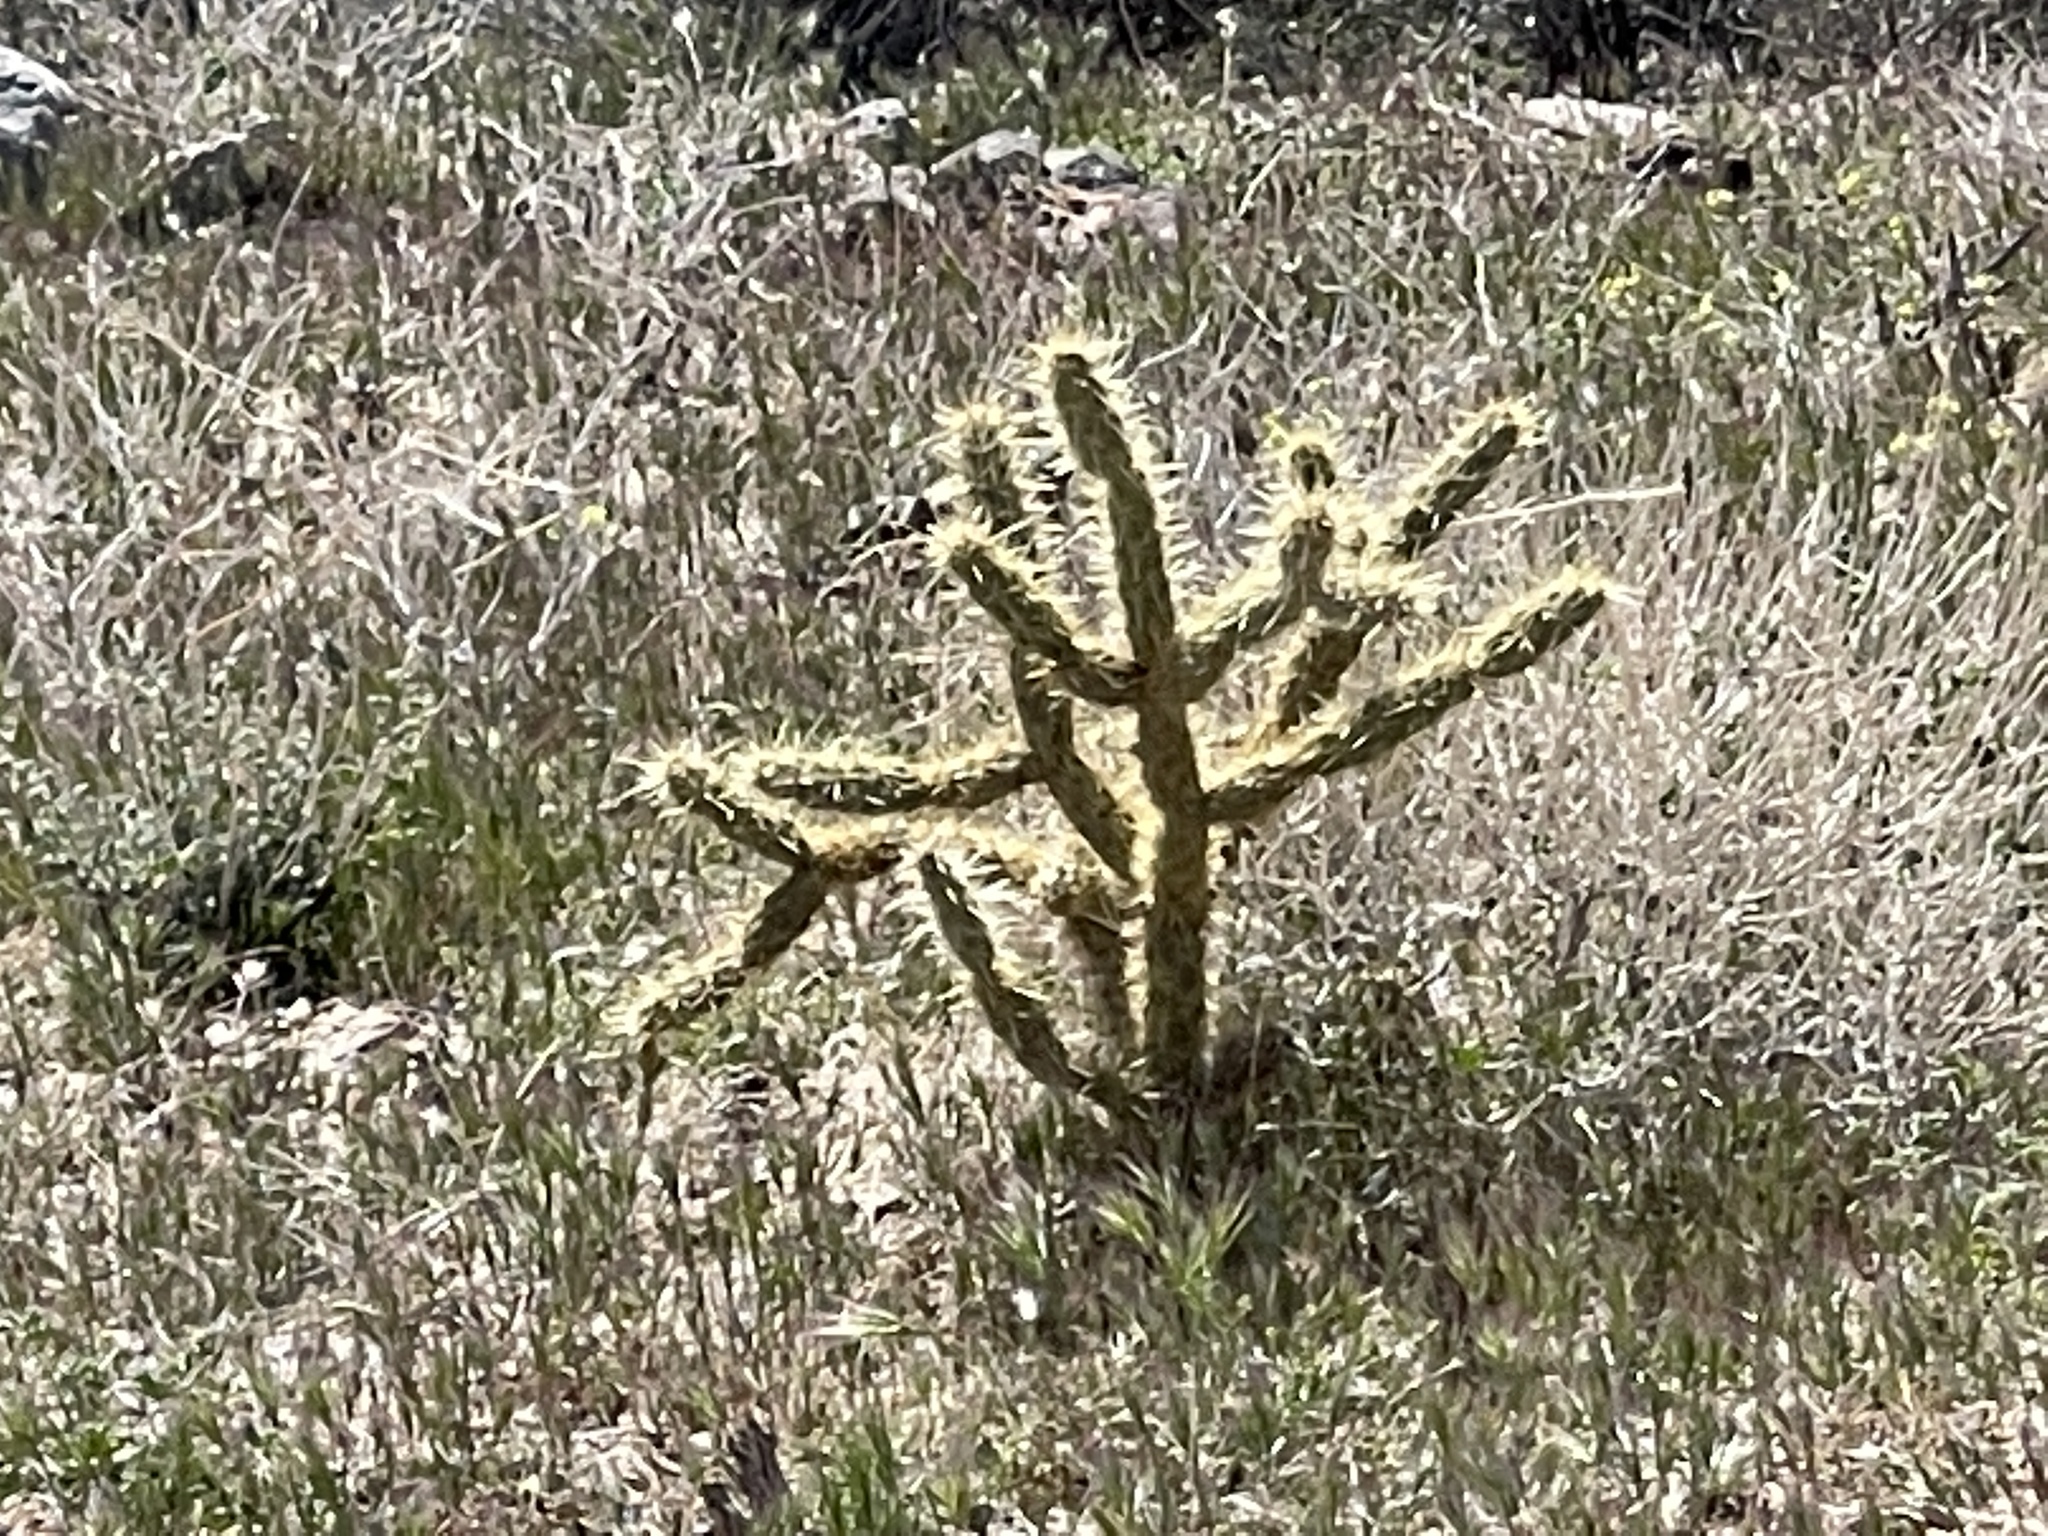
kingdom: Plantae
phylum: Tracheophyta
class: Magnoliopsida
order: Caryophyllales
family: Cactaceae
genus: Cylindropuntia
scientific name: Cylindropuntia acanthocarpa
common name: Buckhorn cholla
